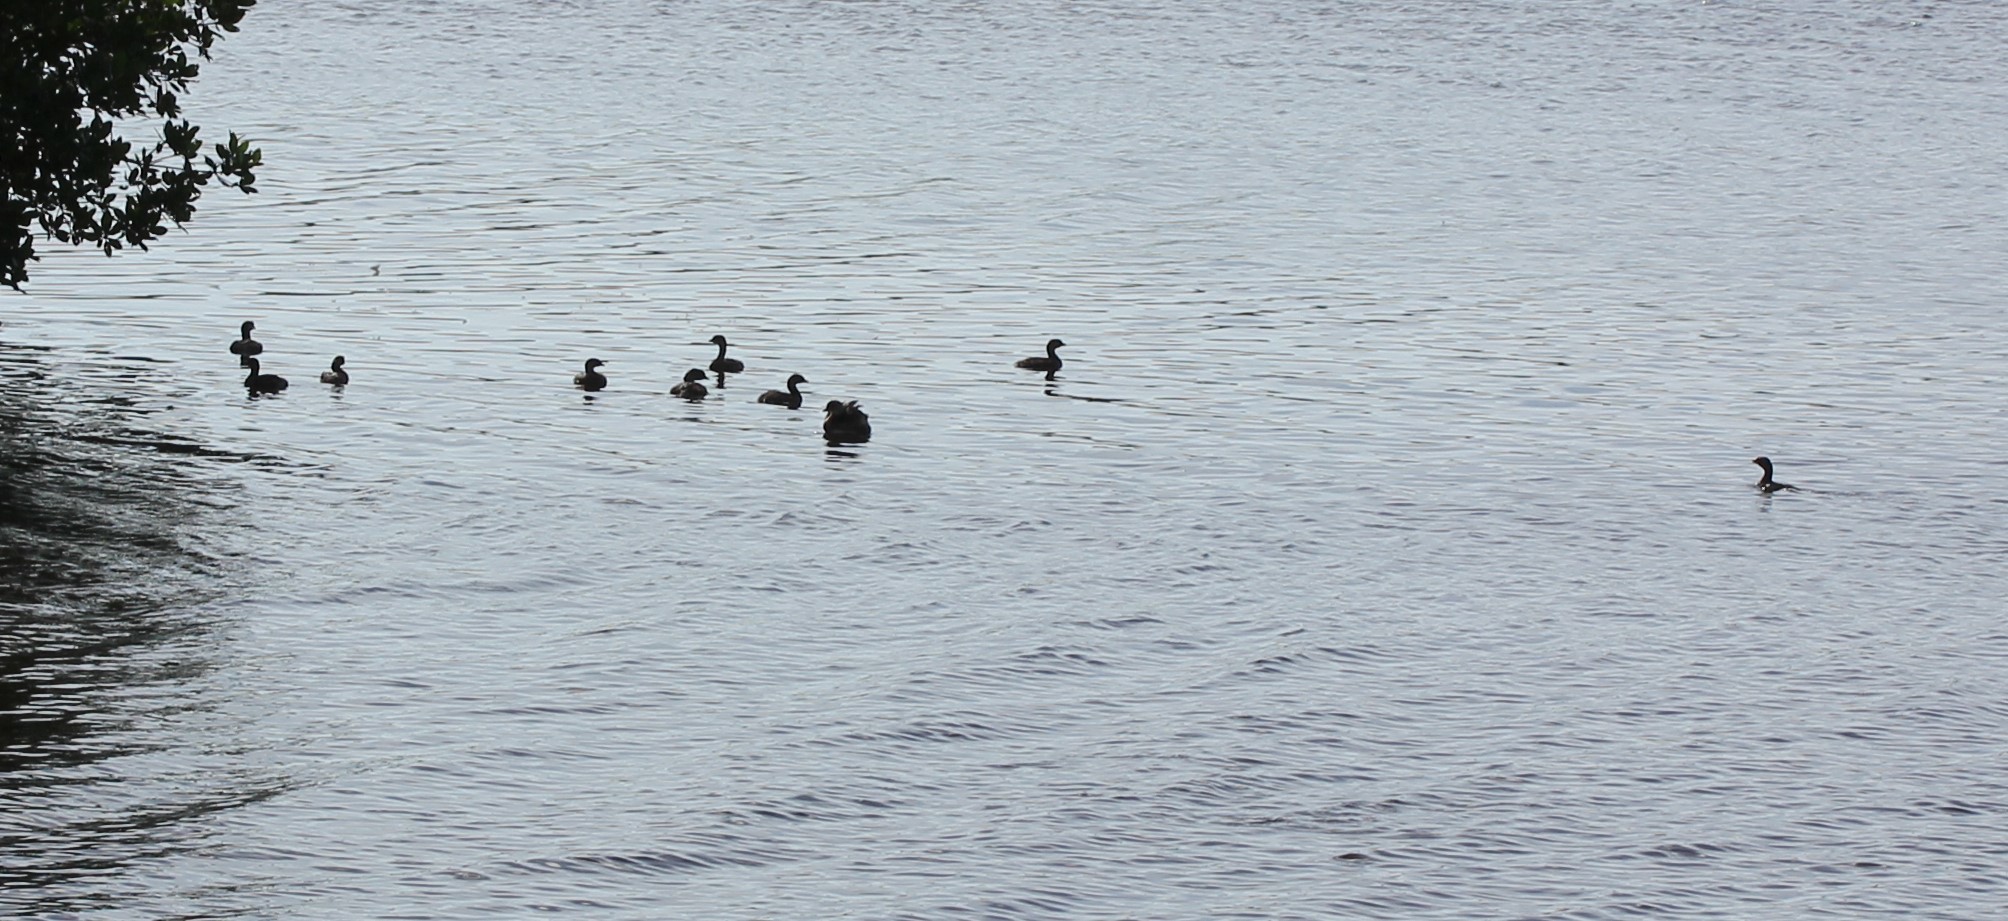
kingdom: Animalia
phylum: Chordata
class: Aves
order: Podicipediformes
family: Podicipedidae
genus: Podilymbus
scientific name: Podilymbus podiceps
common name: Pied-billed grebe
